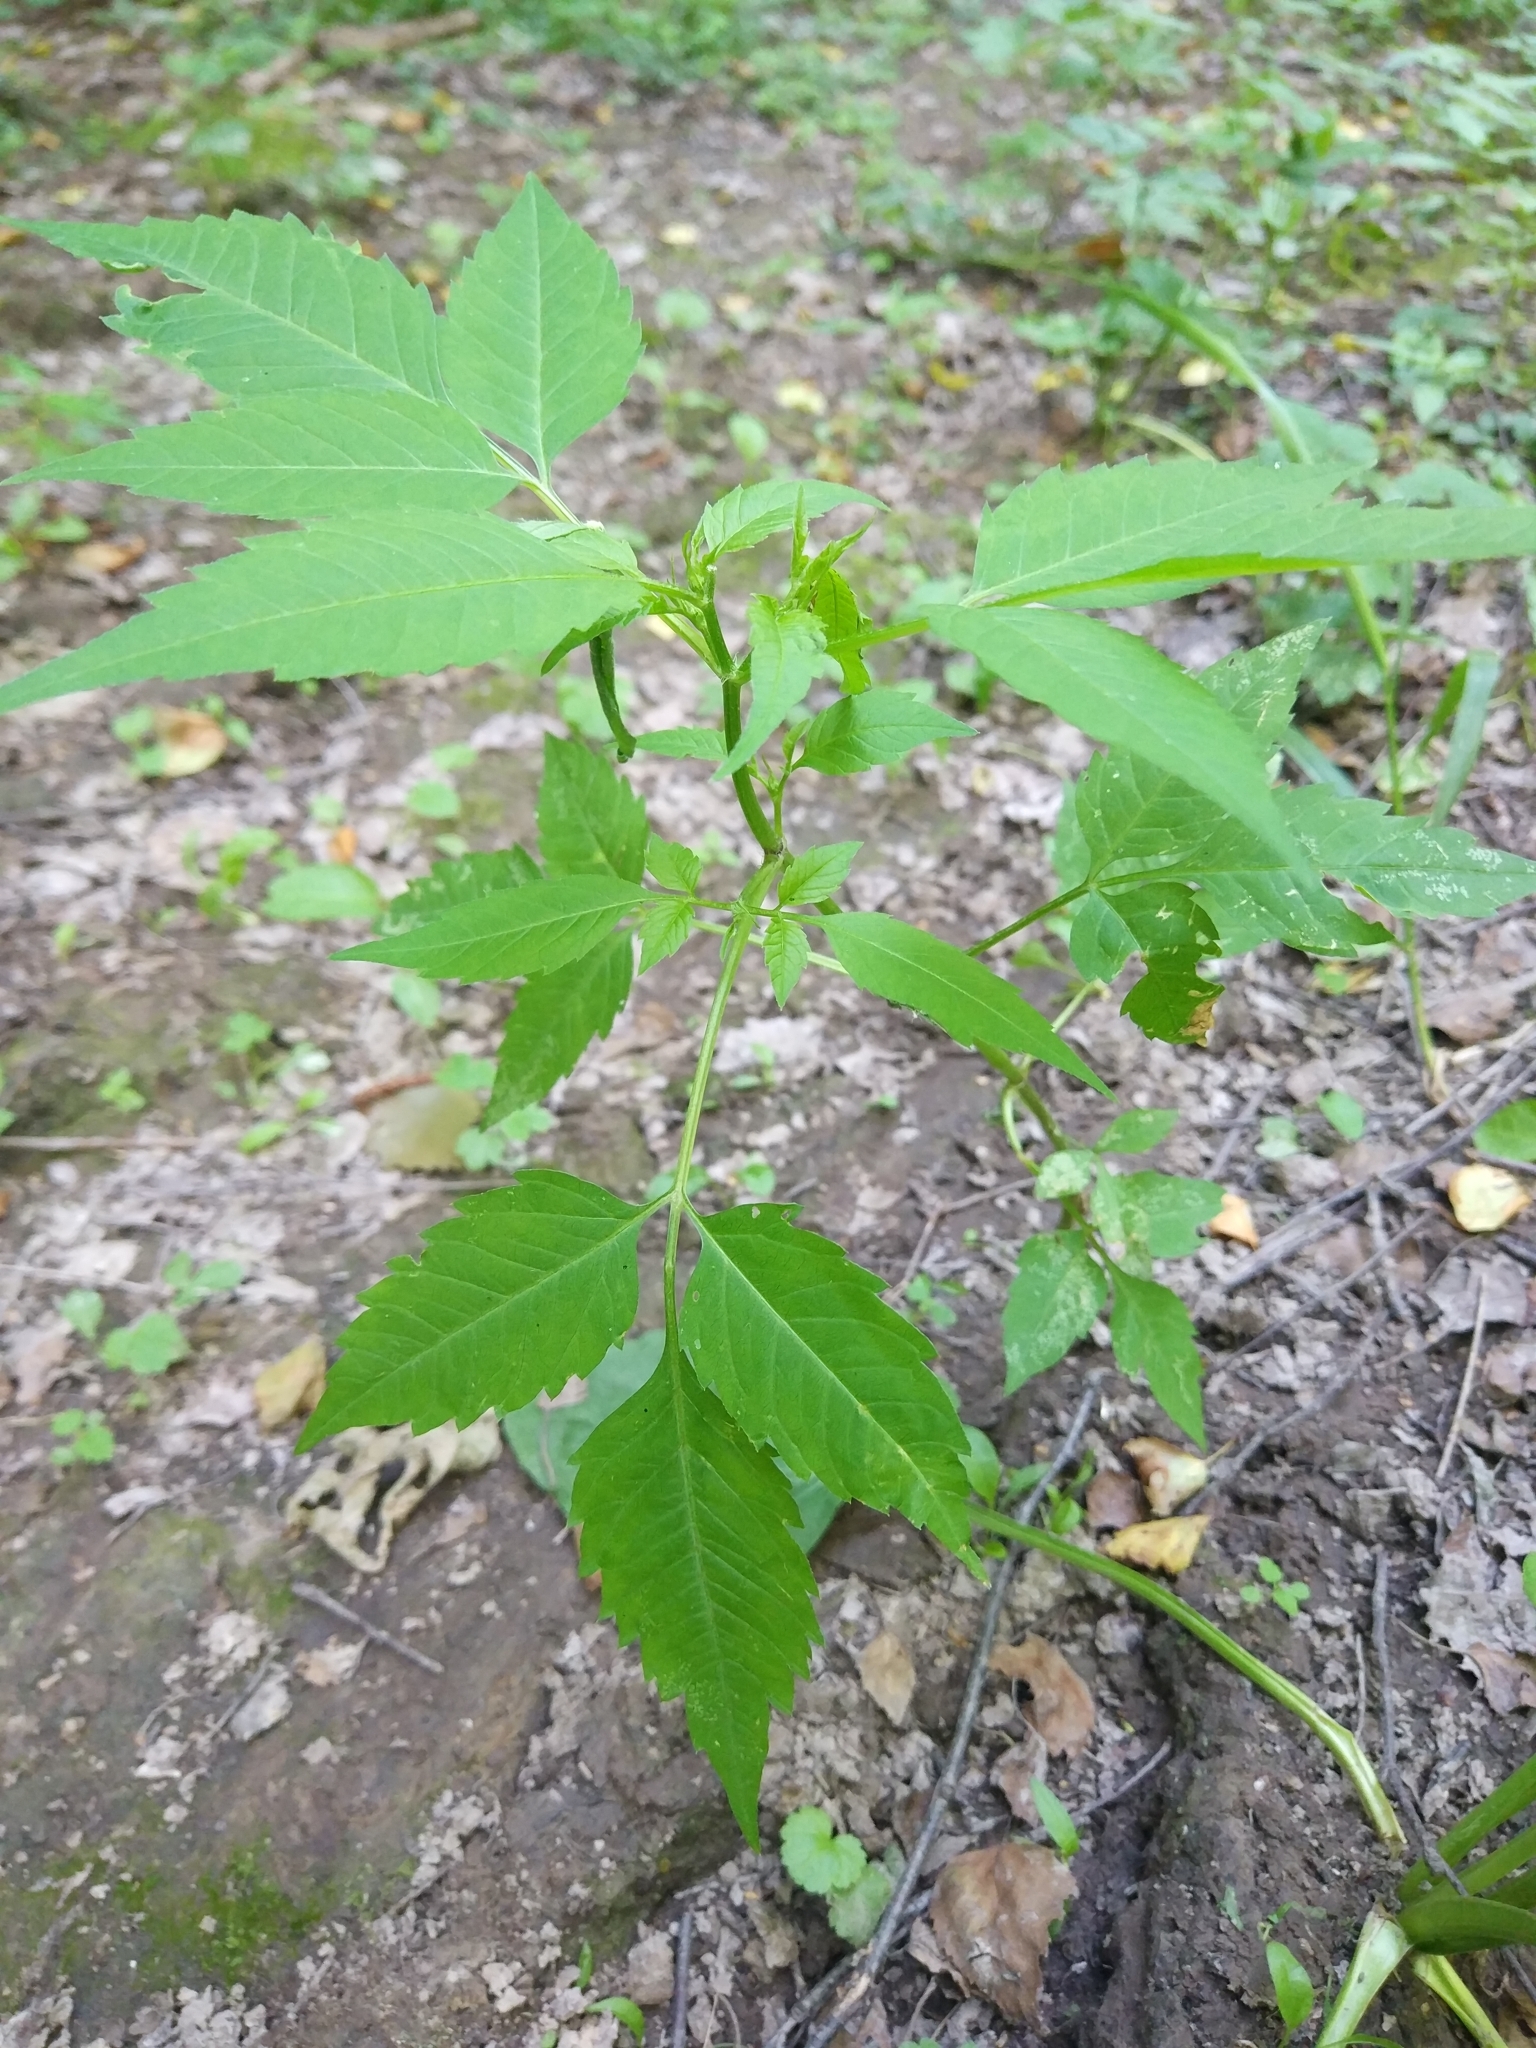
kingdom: Plantae
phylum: Tracheophyta
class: Magnoliopsida
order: Asterales
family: Asteraceae
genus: Bidens
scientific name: Bidens frondosa
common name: Beggarticks
